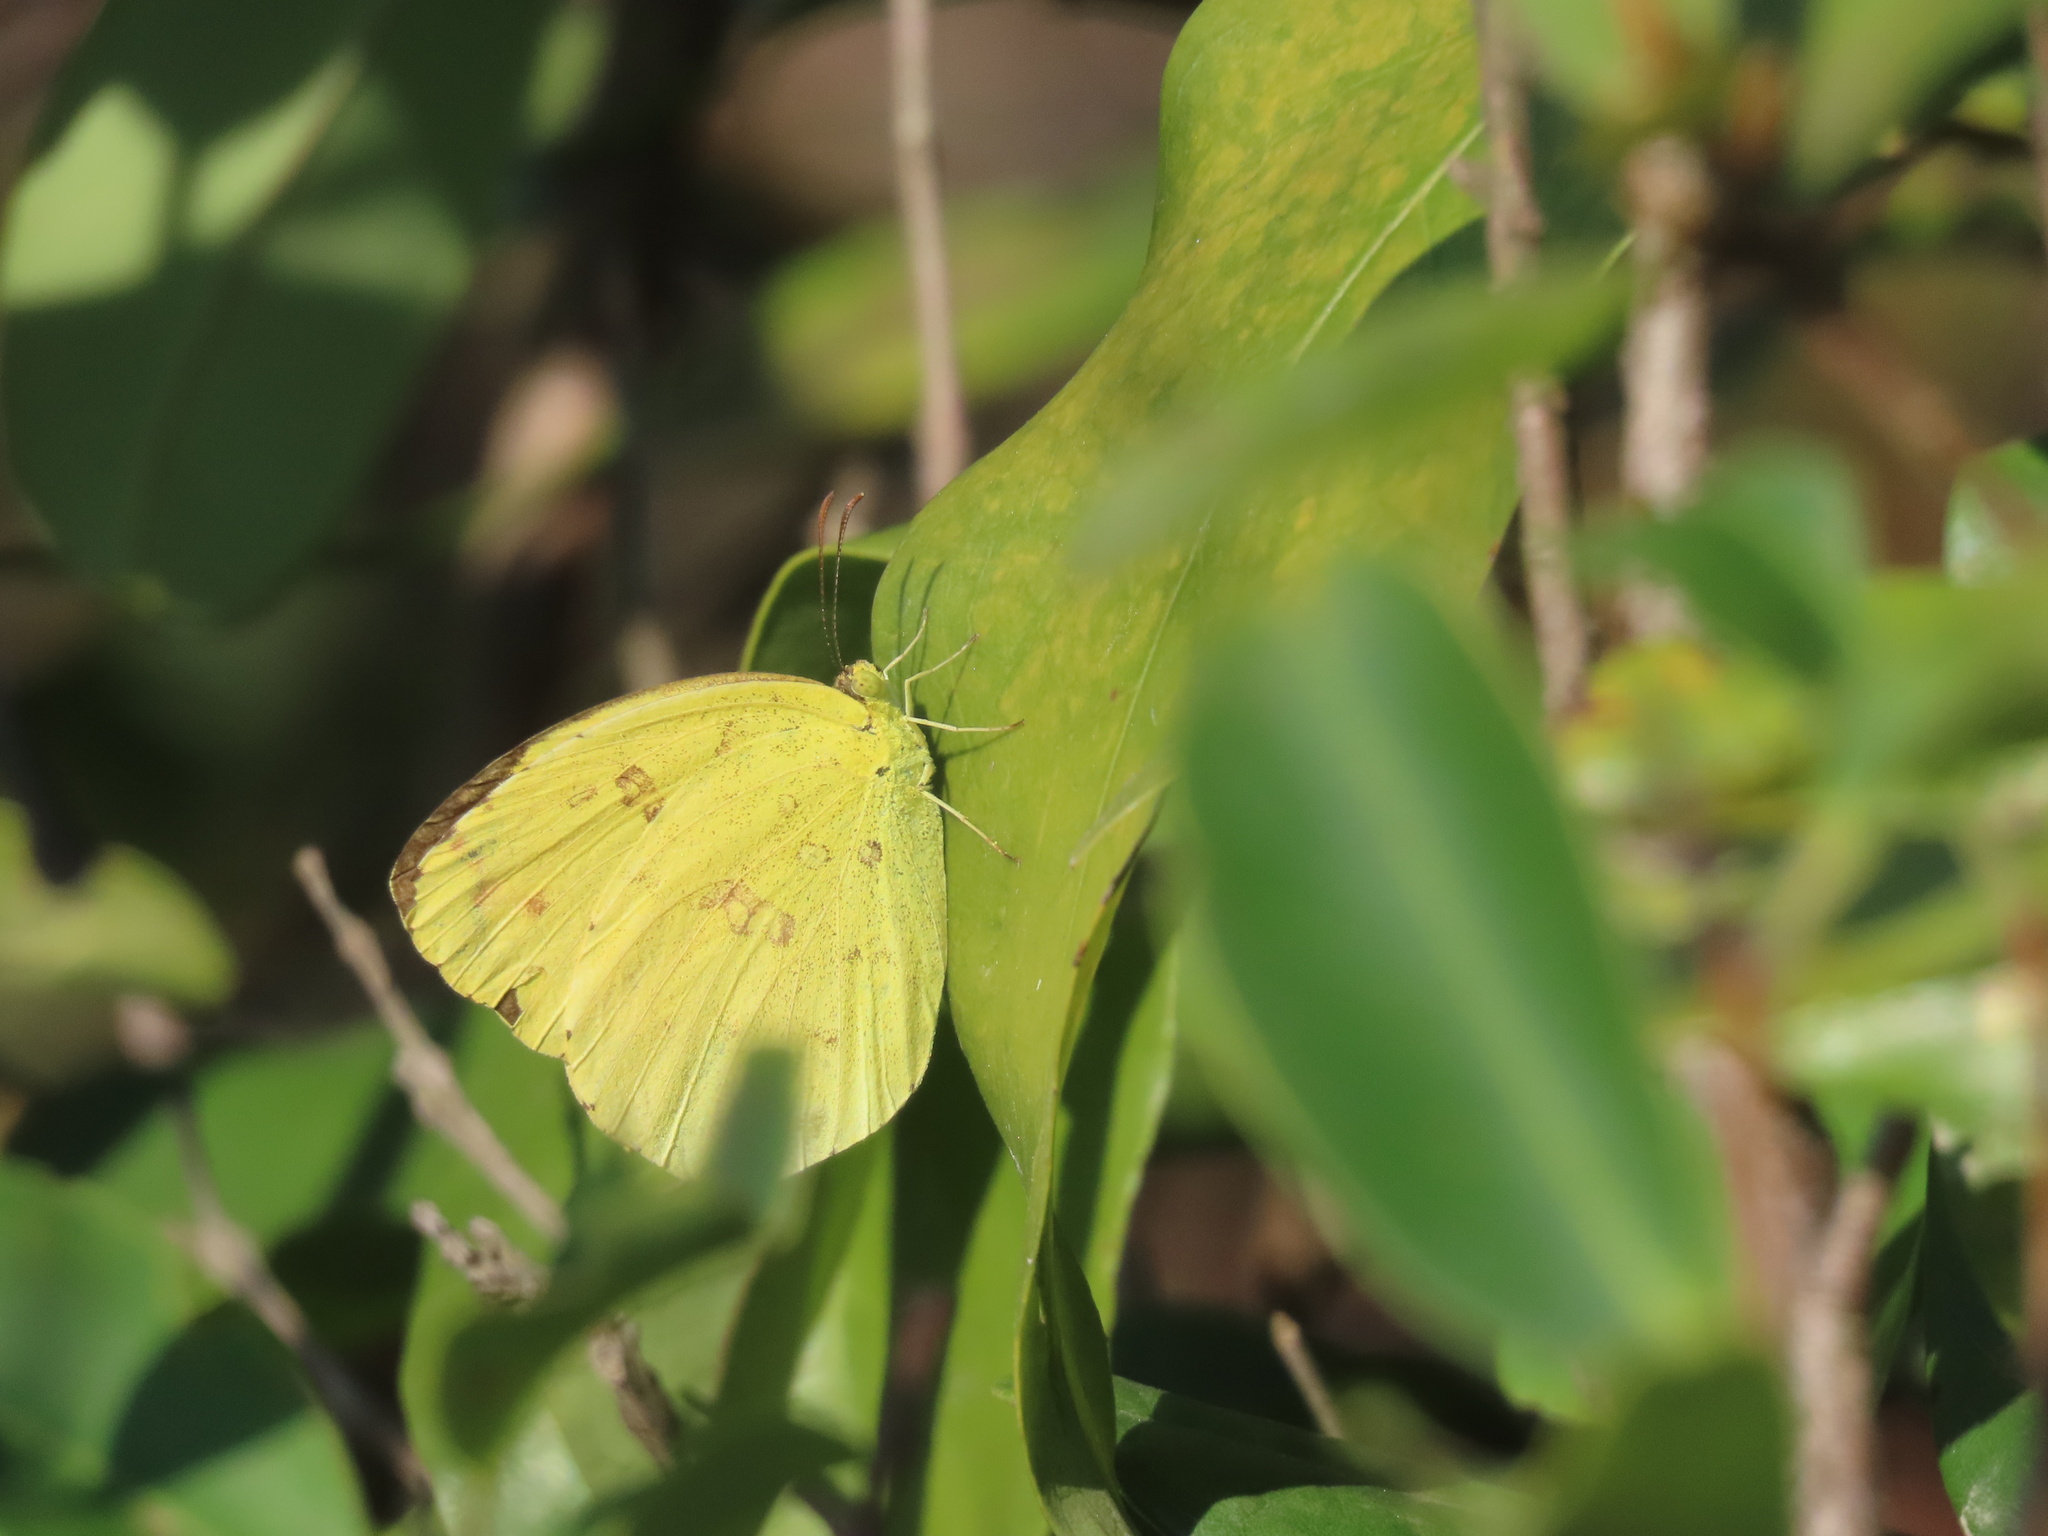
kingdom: Animalia
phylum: Arthropoda
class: Insecta
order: Lepidoptera
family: Pieridae
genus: Eurema
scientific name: Eurema hecabe
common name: Pale grass yellow
